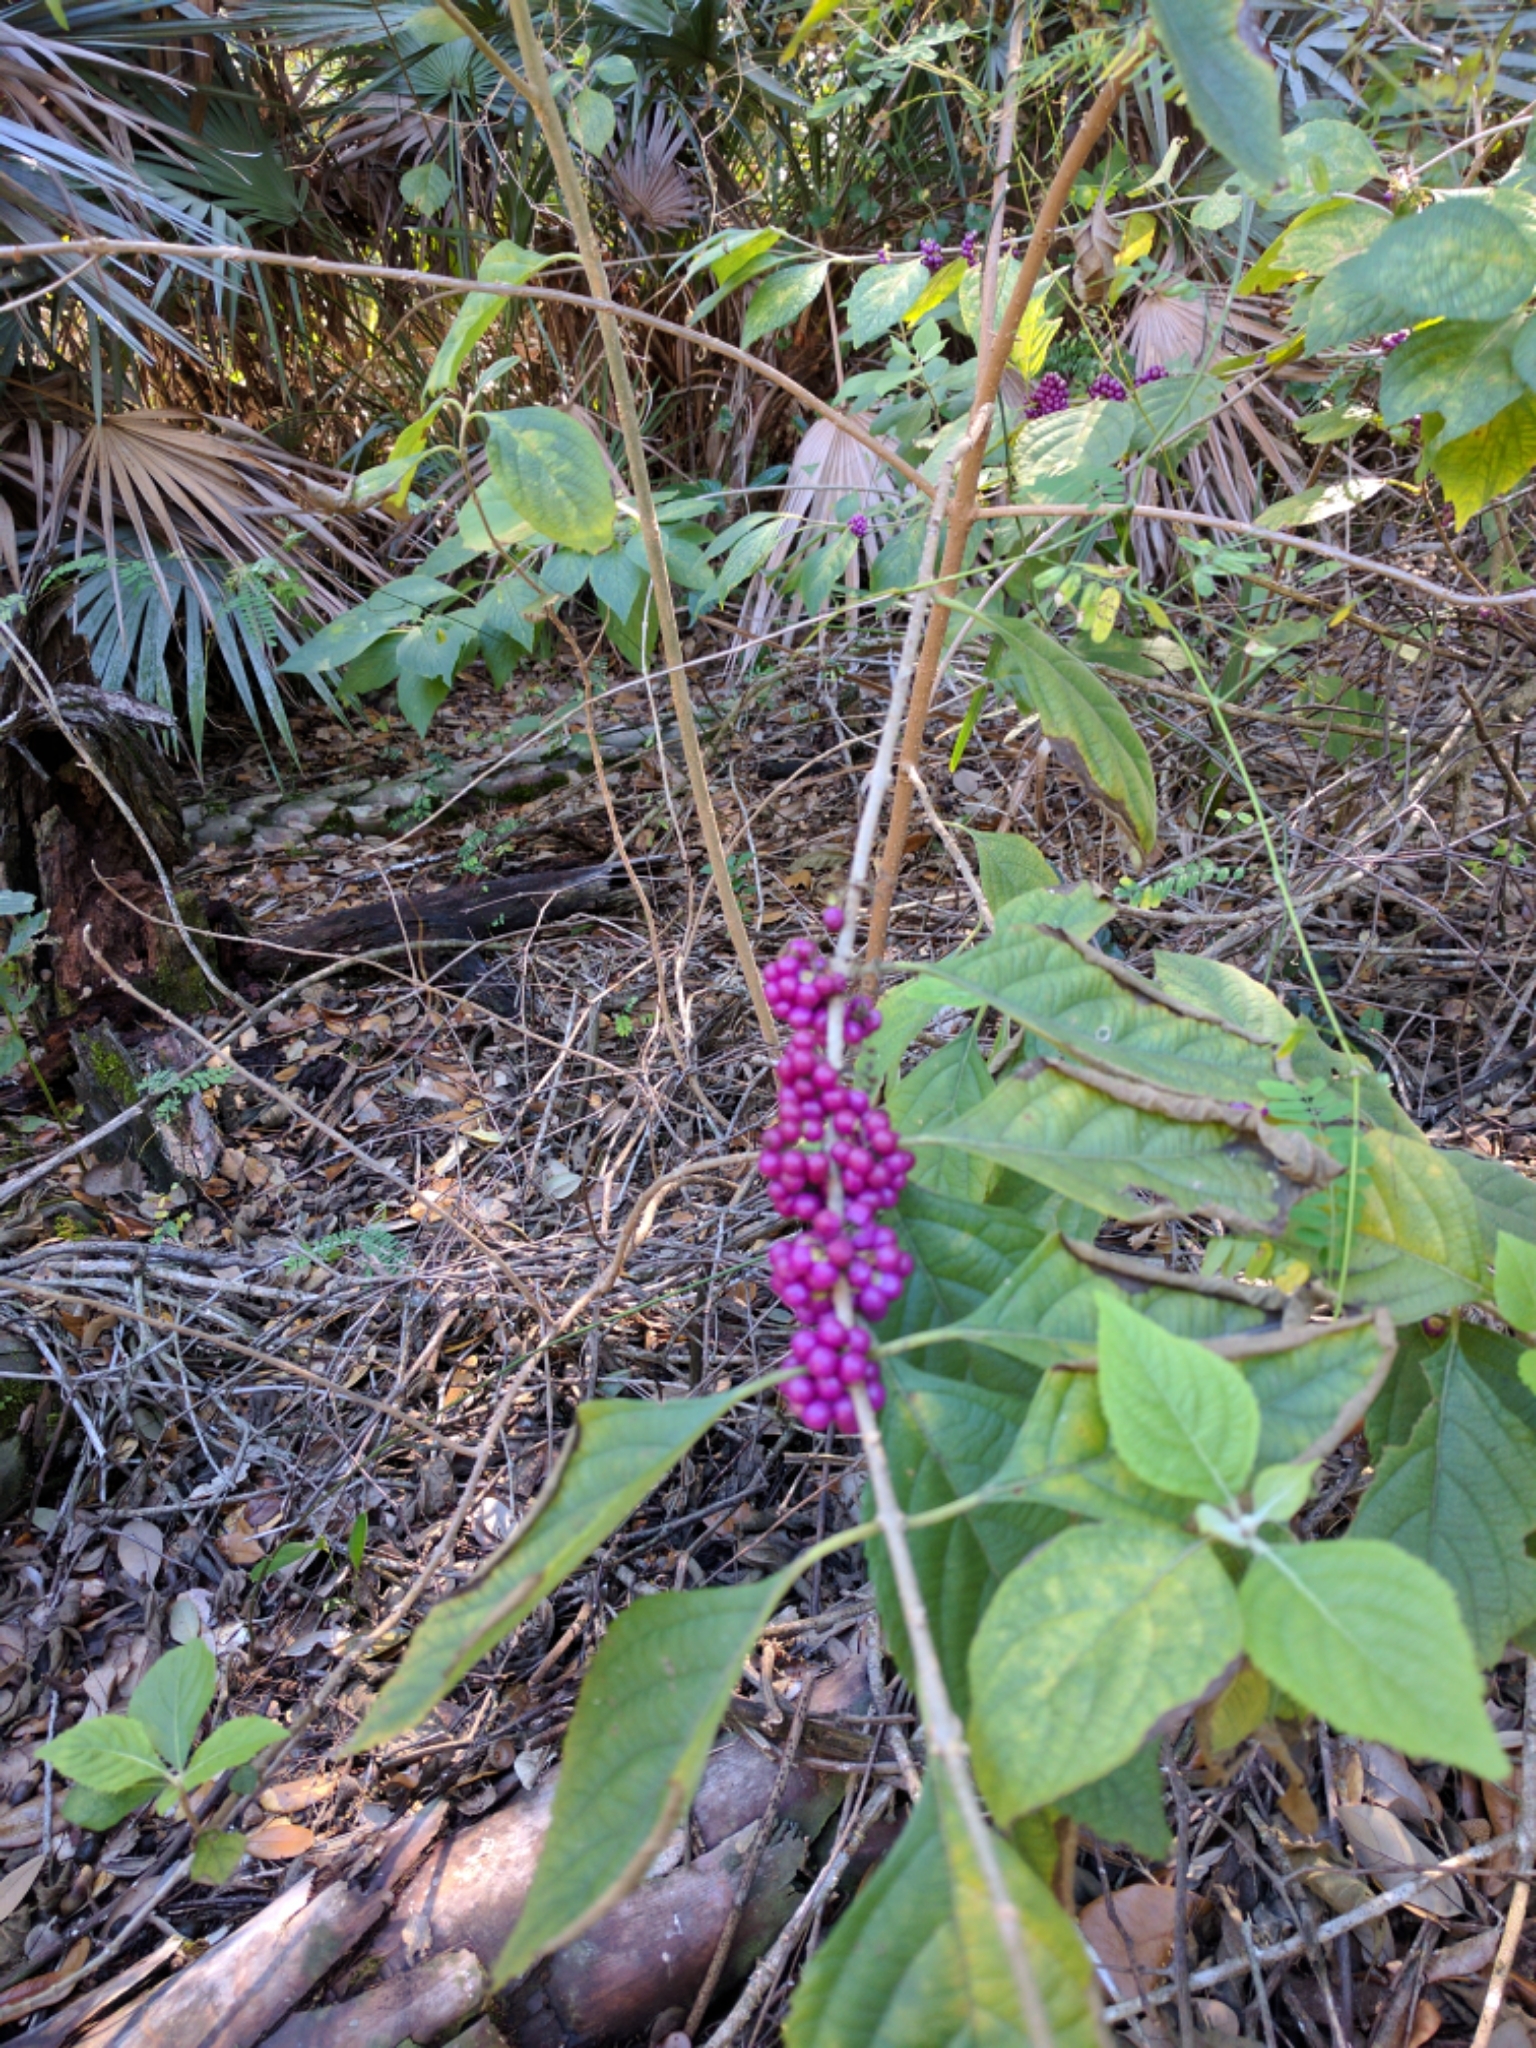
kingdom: Plantae
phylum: Tracheophyta
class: Magnoliopsida
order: Lamiales
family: Lamiaceae
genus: Callicarpa
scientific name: Callicarpa americana
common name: American beautyberry
